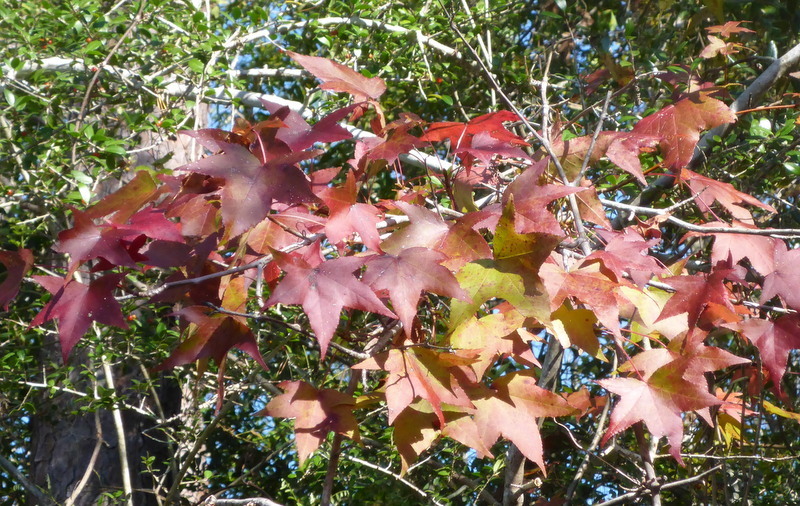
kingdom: Plantae
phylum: Tracheophyta
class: Magnoliopsida
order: Saxifragales
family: Altingiaceae
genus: Liquidambar
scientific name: Liquidambar styraciflua
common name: Sweet gum
